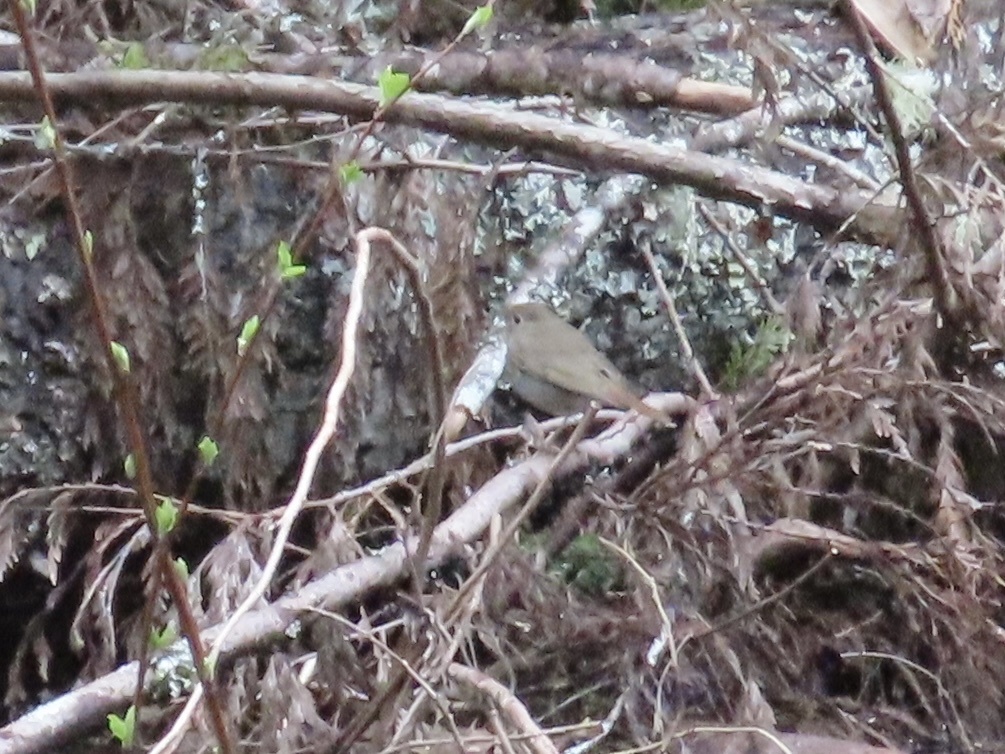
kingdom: Animalia
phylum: Chordata
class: Aves
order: Passeriformes
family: Turdidae
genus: Catharus
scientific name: Catharus guttatus
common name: Hermit thrush
